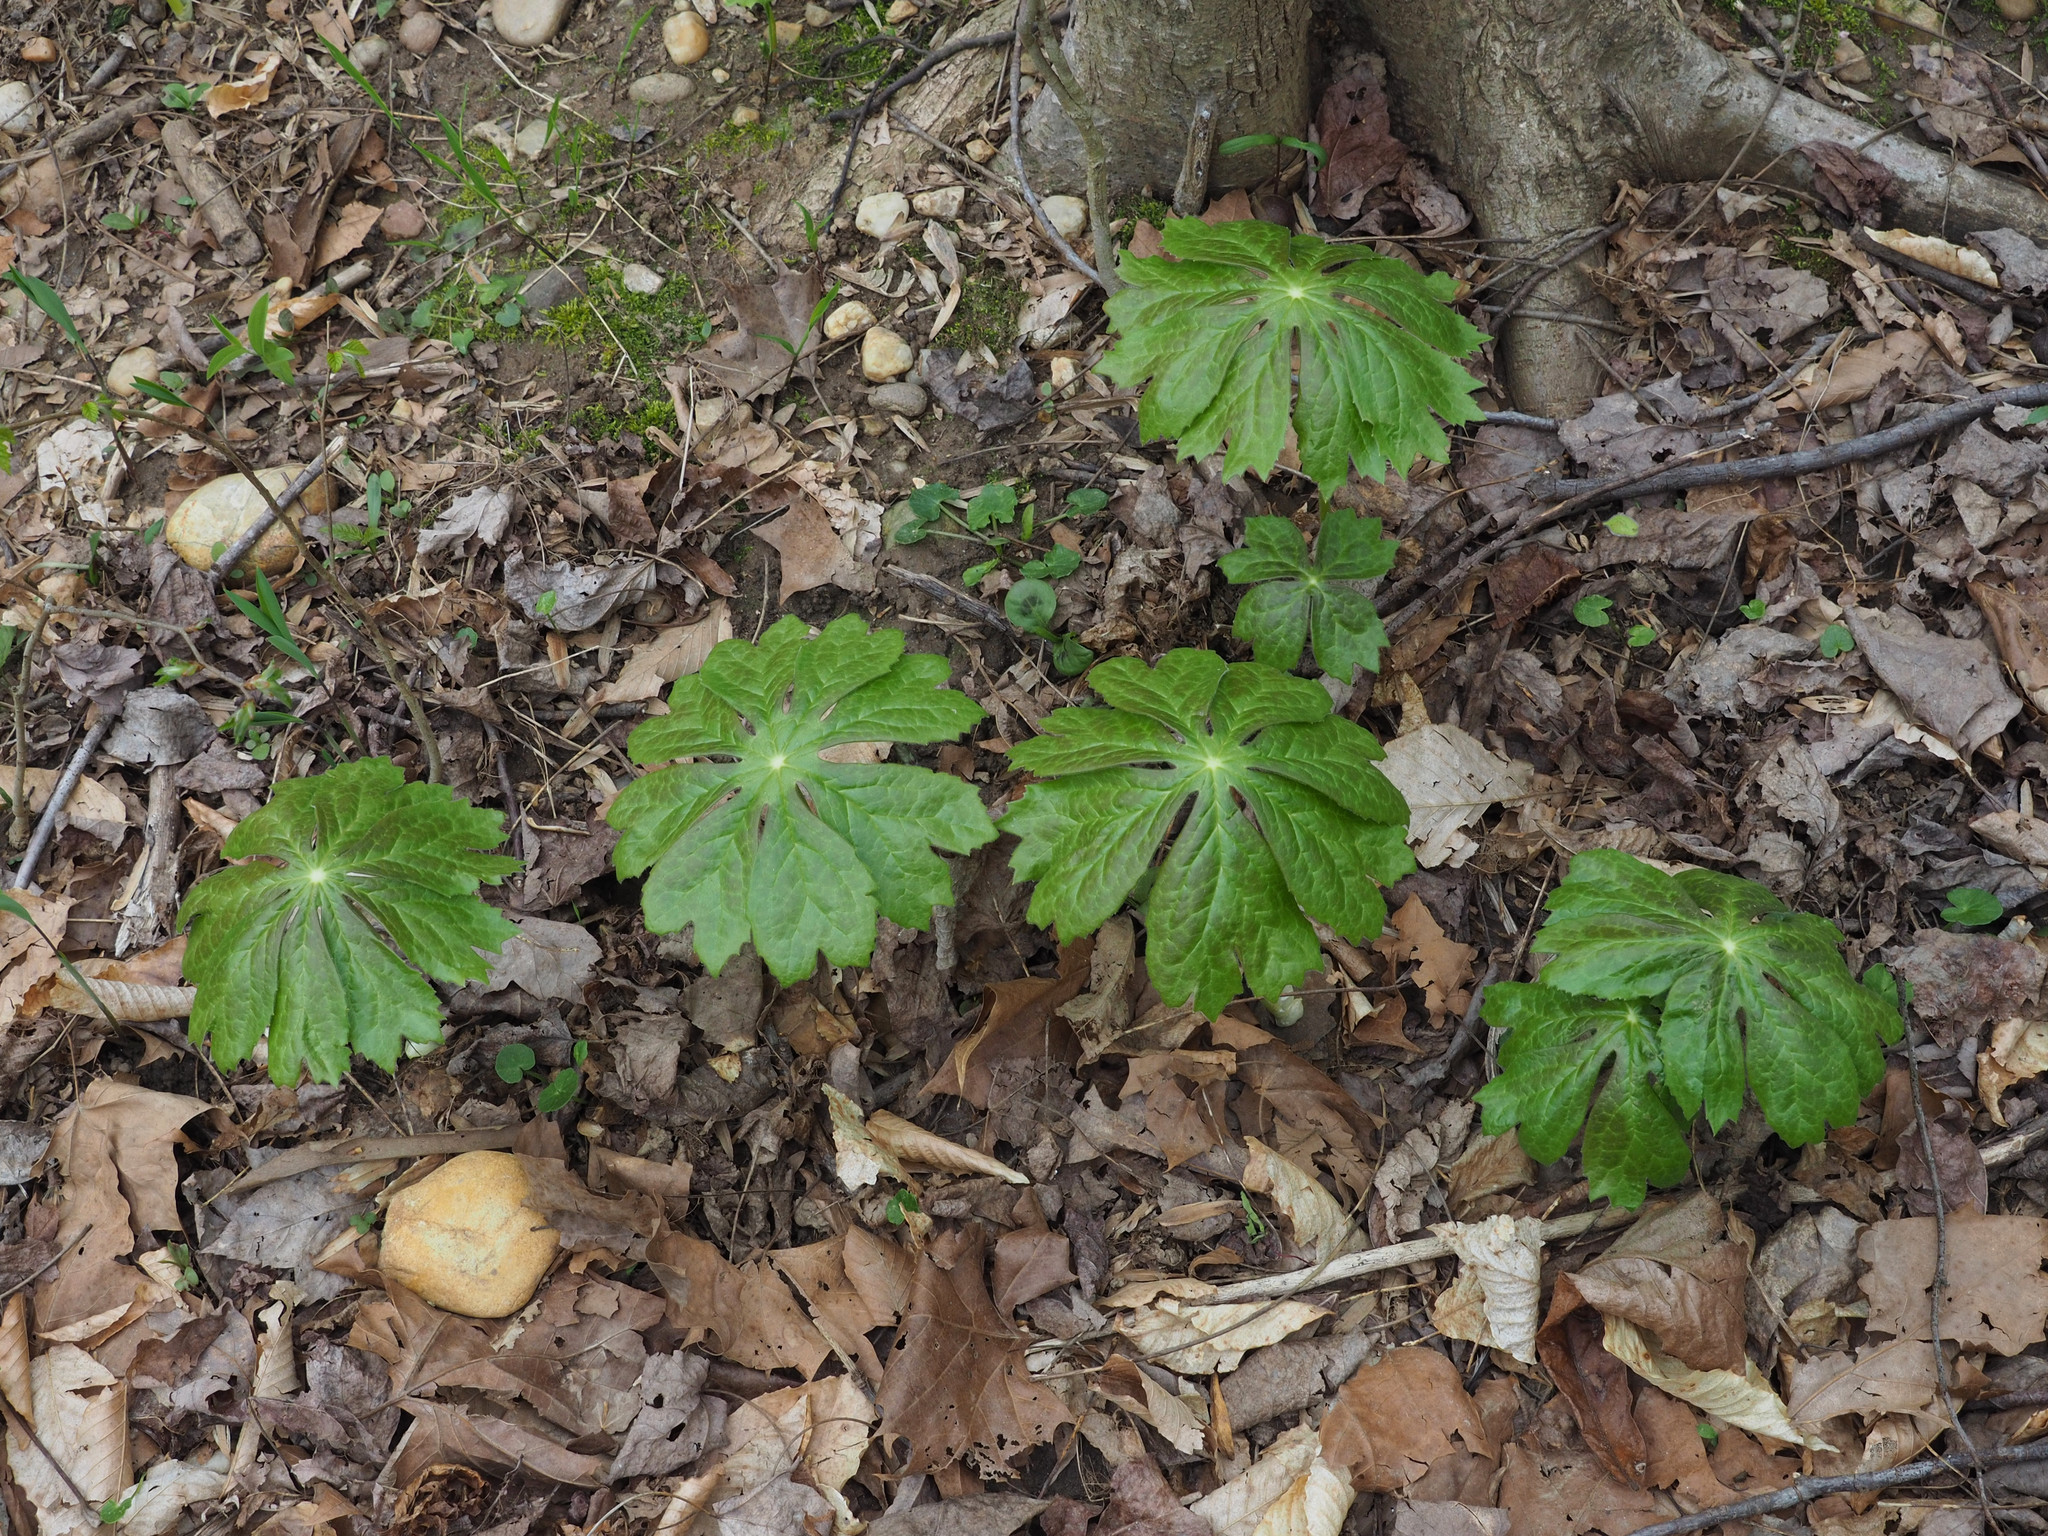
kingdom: Plantae
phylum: Tracheophyta
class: Magnoliopsida
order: Ranunculales
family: Berberidaceae
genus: Podophyllum
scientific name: Podophyllum peltatum
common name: Wild mandrake
